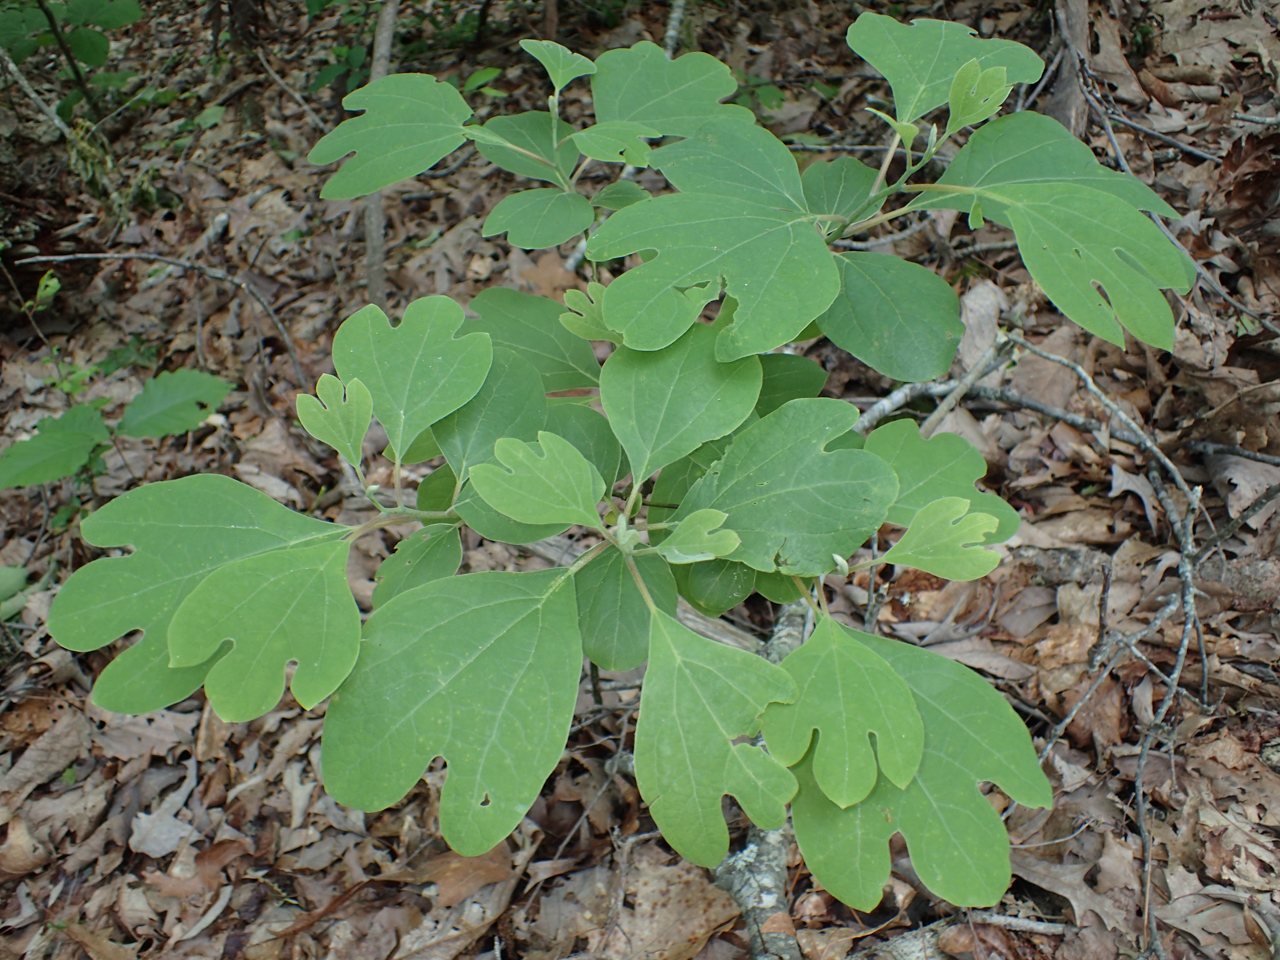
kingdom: Plantae
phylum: Tracheophyta
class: Magnoliopsida
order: Laurales
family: Lauraceae
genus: Sassafras
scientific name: Sassafras albidum
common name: Sassafras
